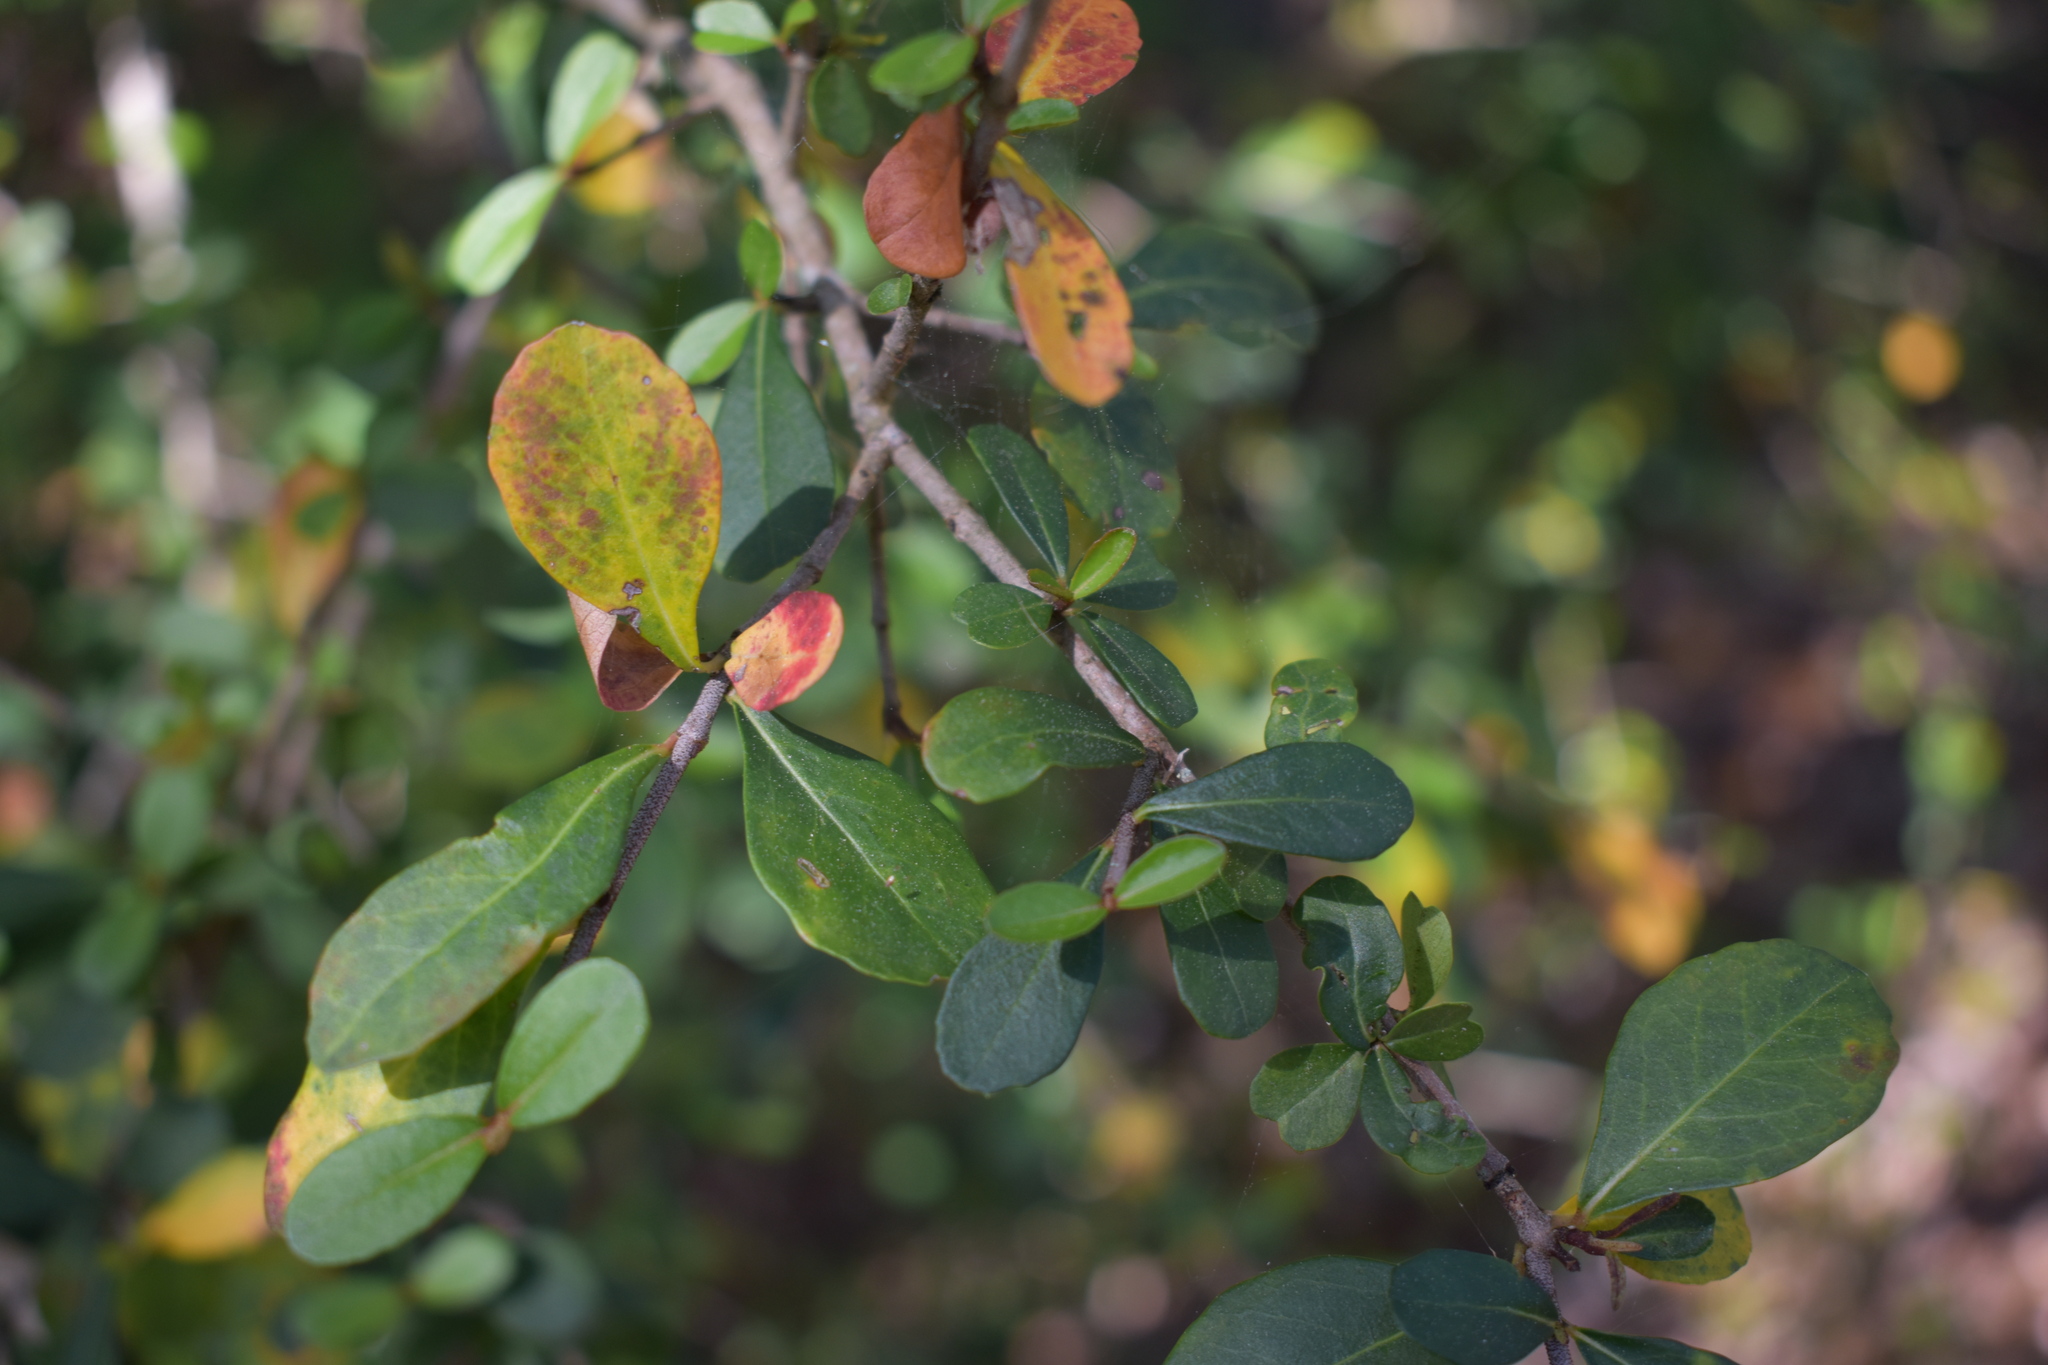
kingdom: Plantae
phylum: Tracheophyta
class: Magnoliopsida
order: Dipsacales
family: Viburnaceae
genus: Viburnum
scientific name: Viburnum obovatum
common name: Walter's viburnum
